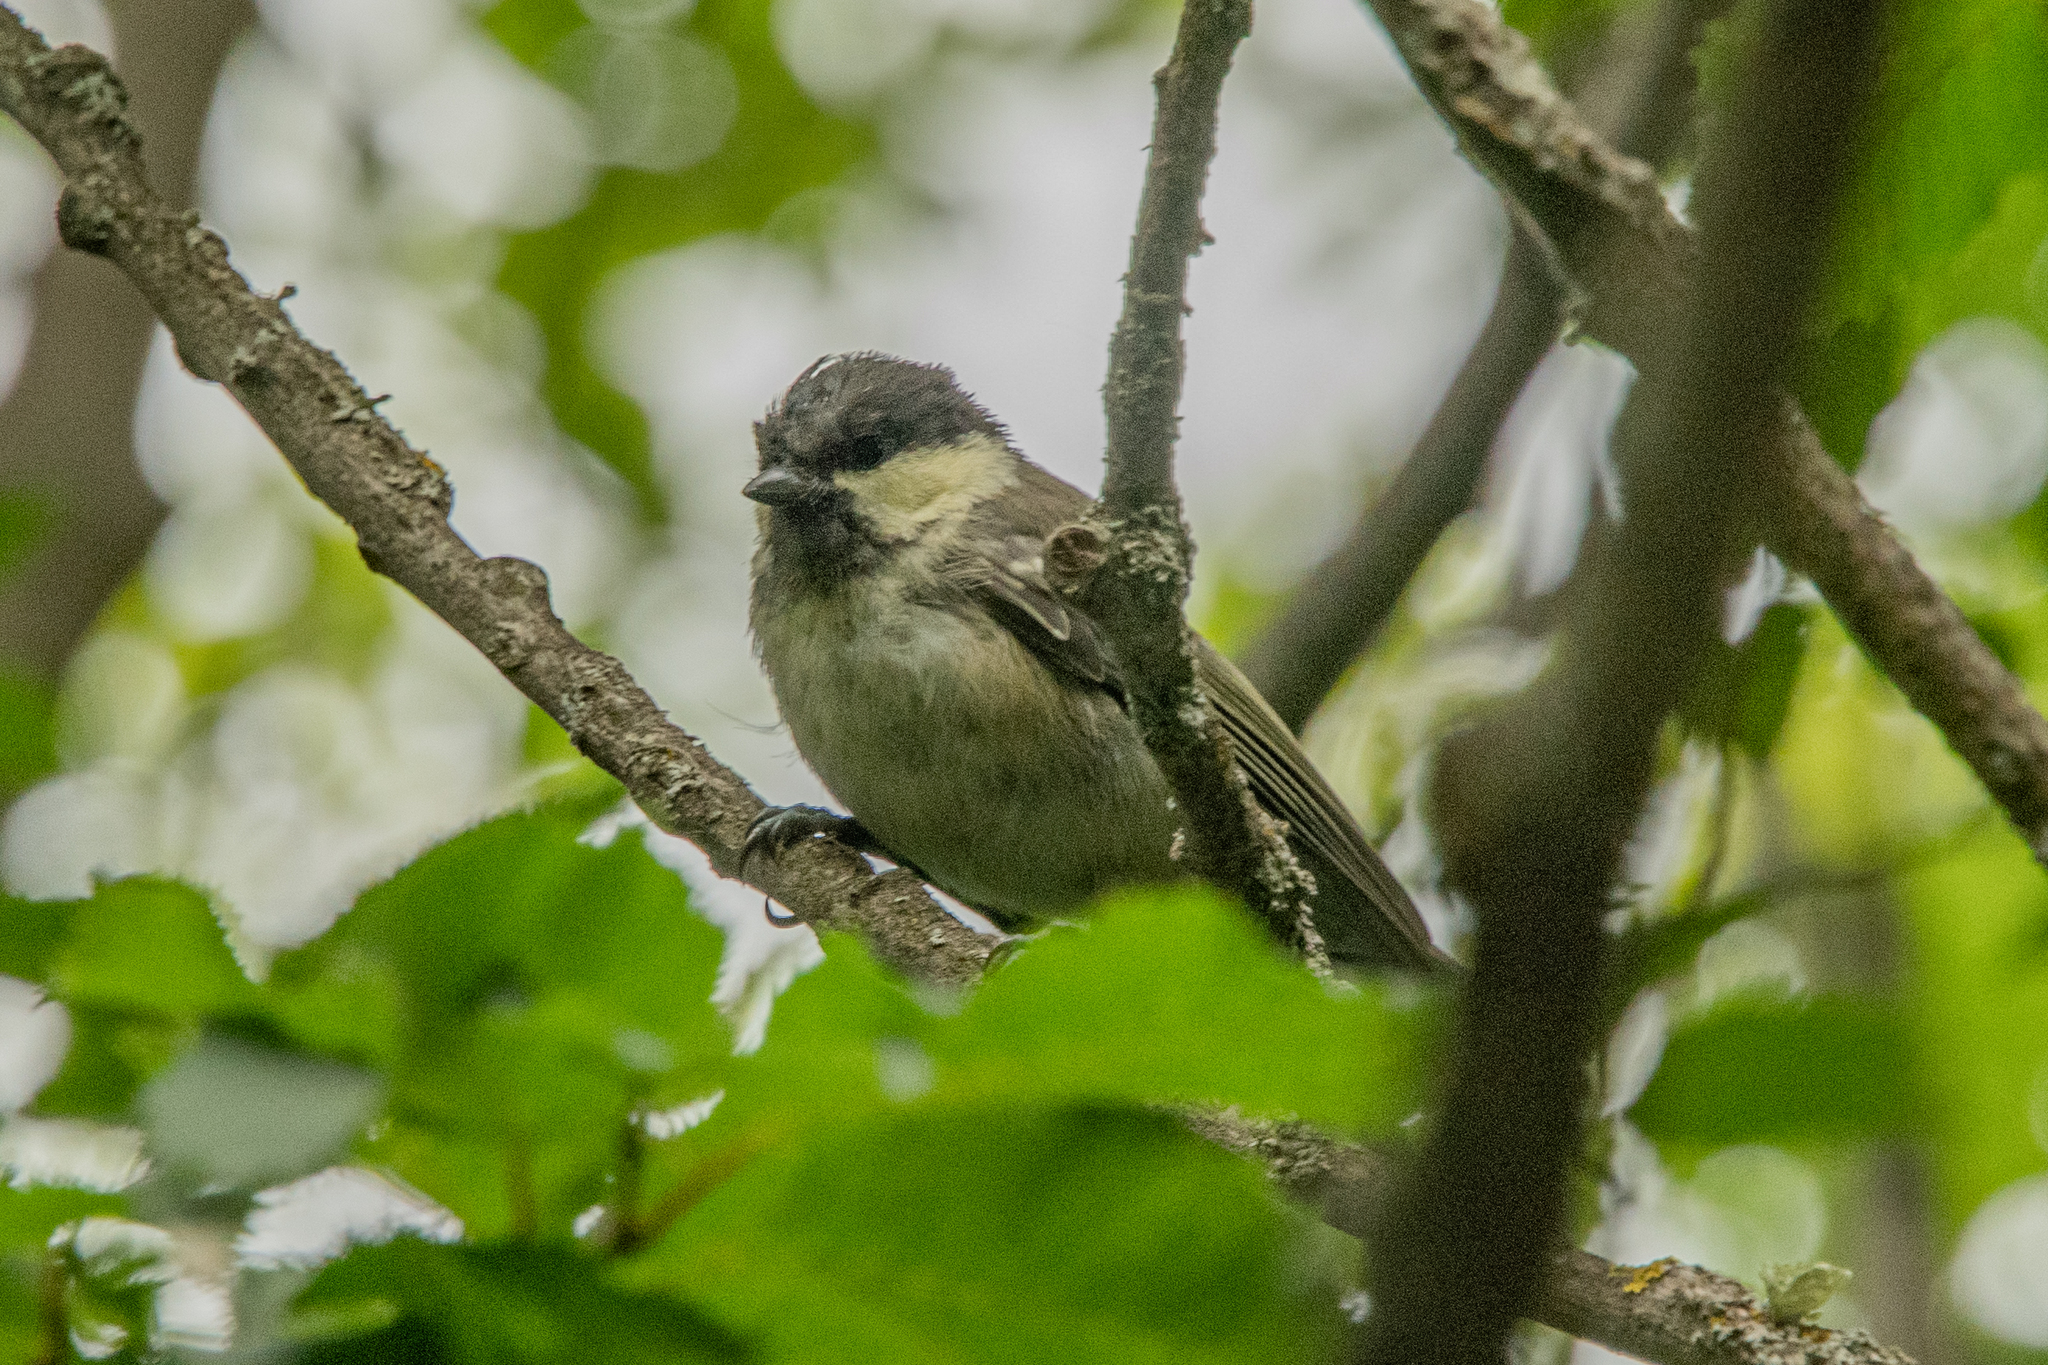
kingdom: Animalia
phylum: Chordata
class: Aves
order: Passeriformes
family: Paridae
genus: Periparus
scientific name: Periparus ater
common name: Coal tit
